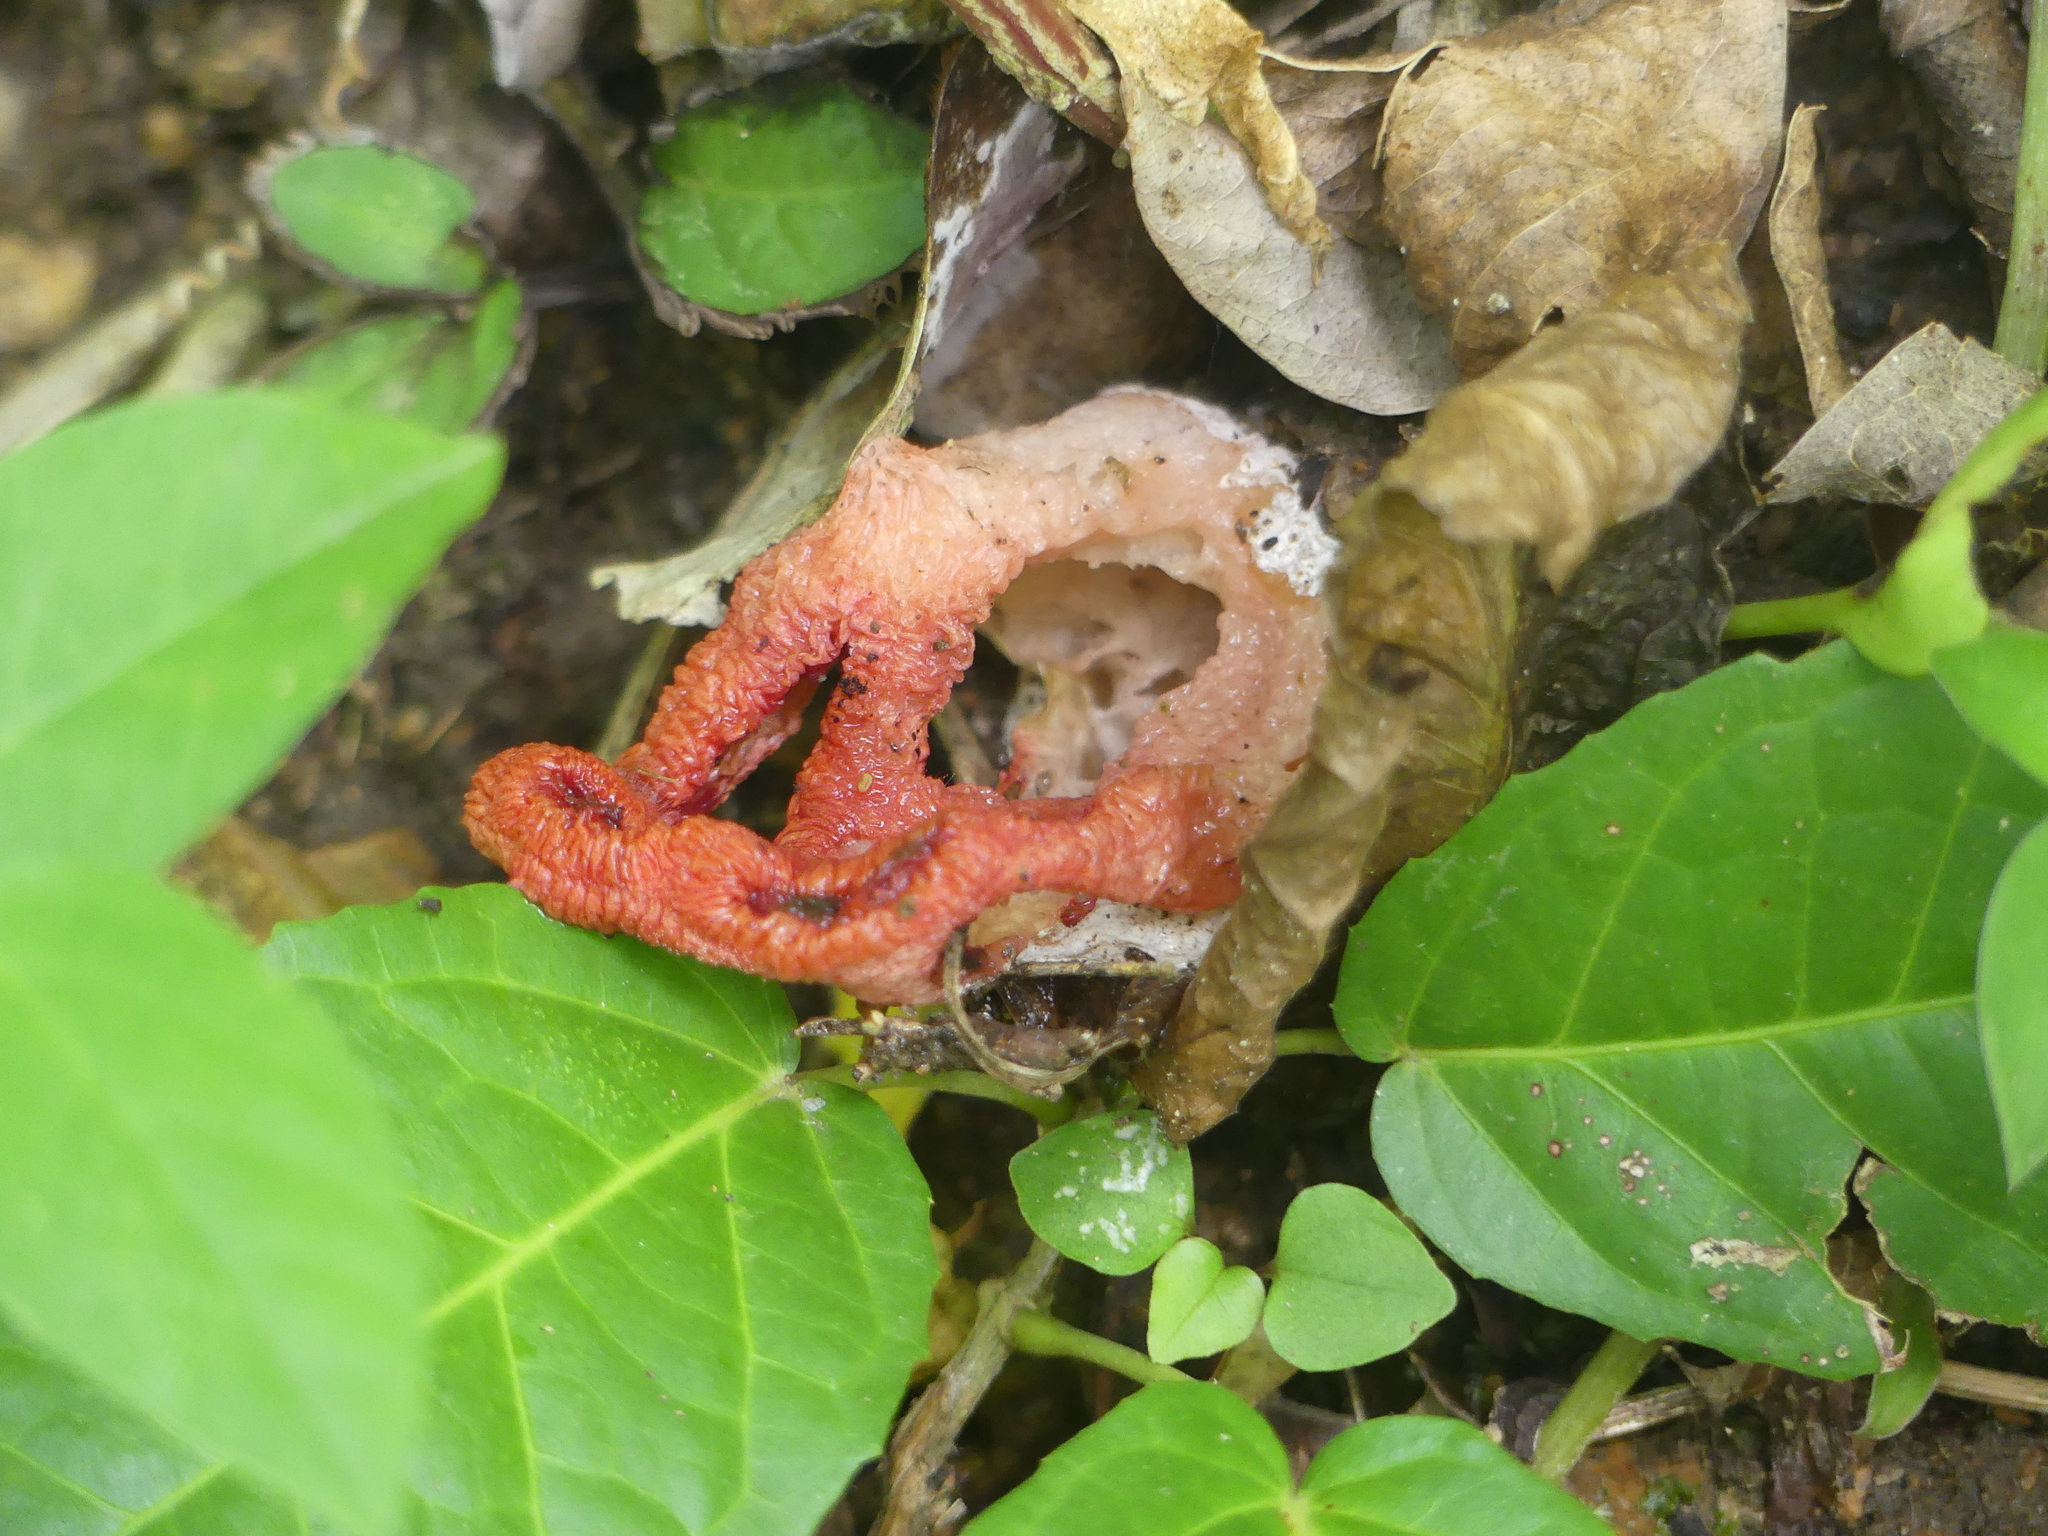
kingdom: Fungi
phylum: Basidiomycota
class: Agaricomycetes
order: Phallales
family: Phallaceae
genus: Clathrus
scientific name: Clathrus crispatus
